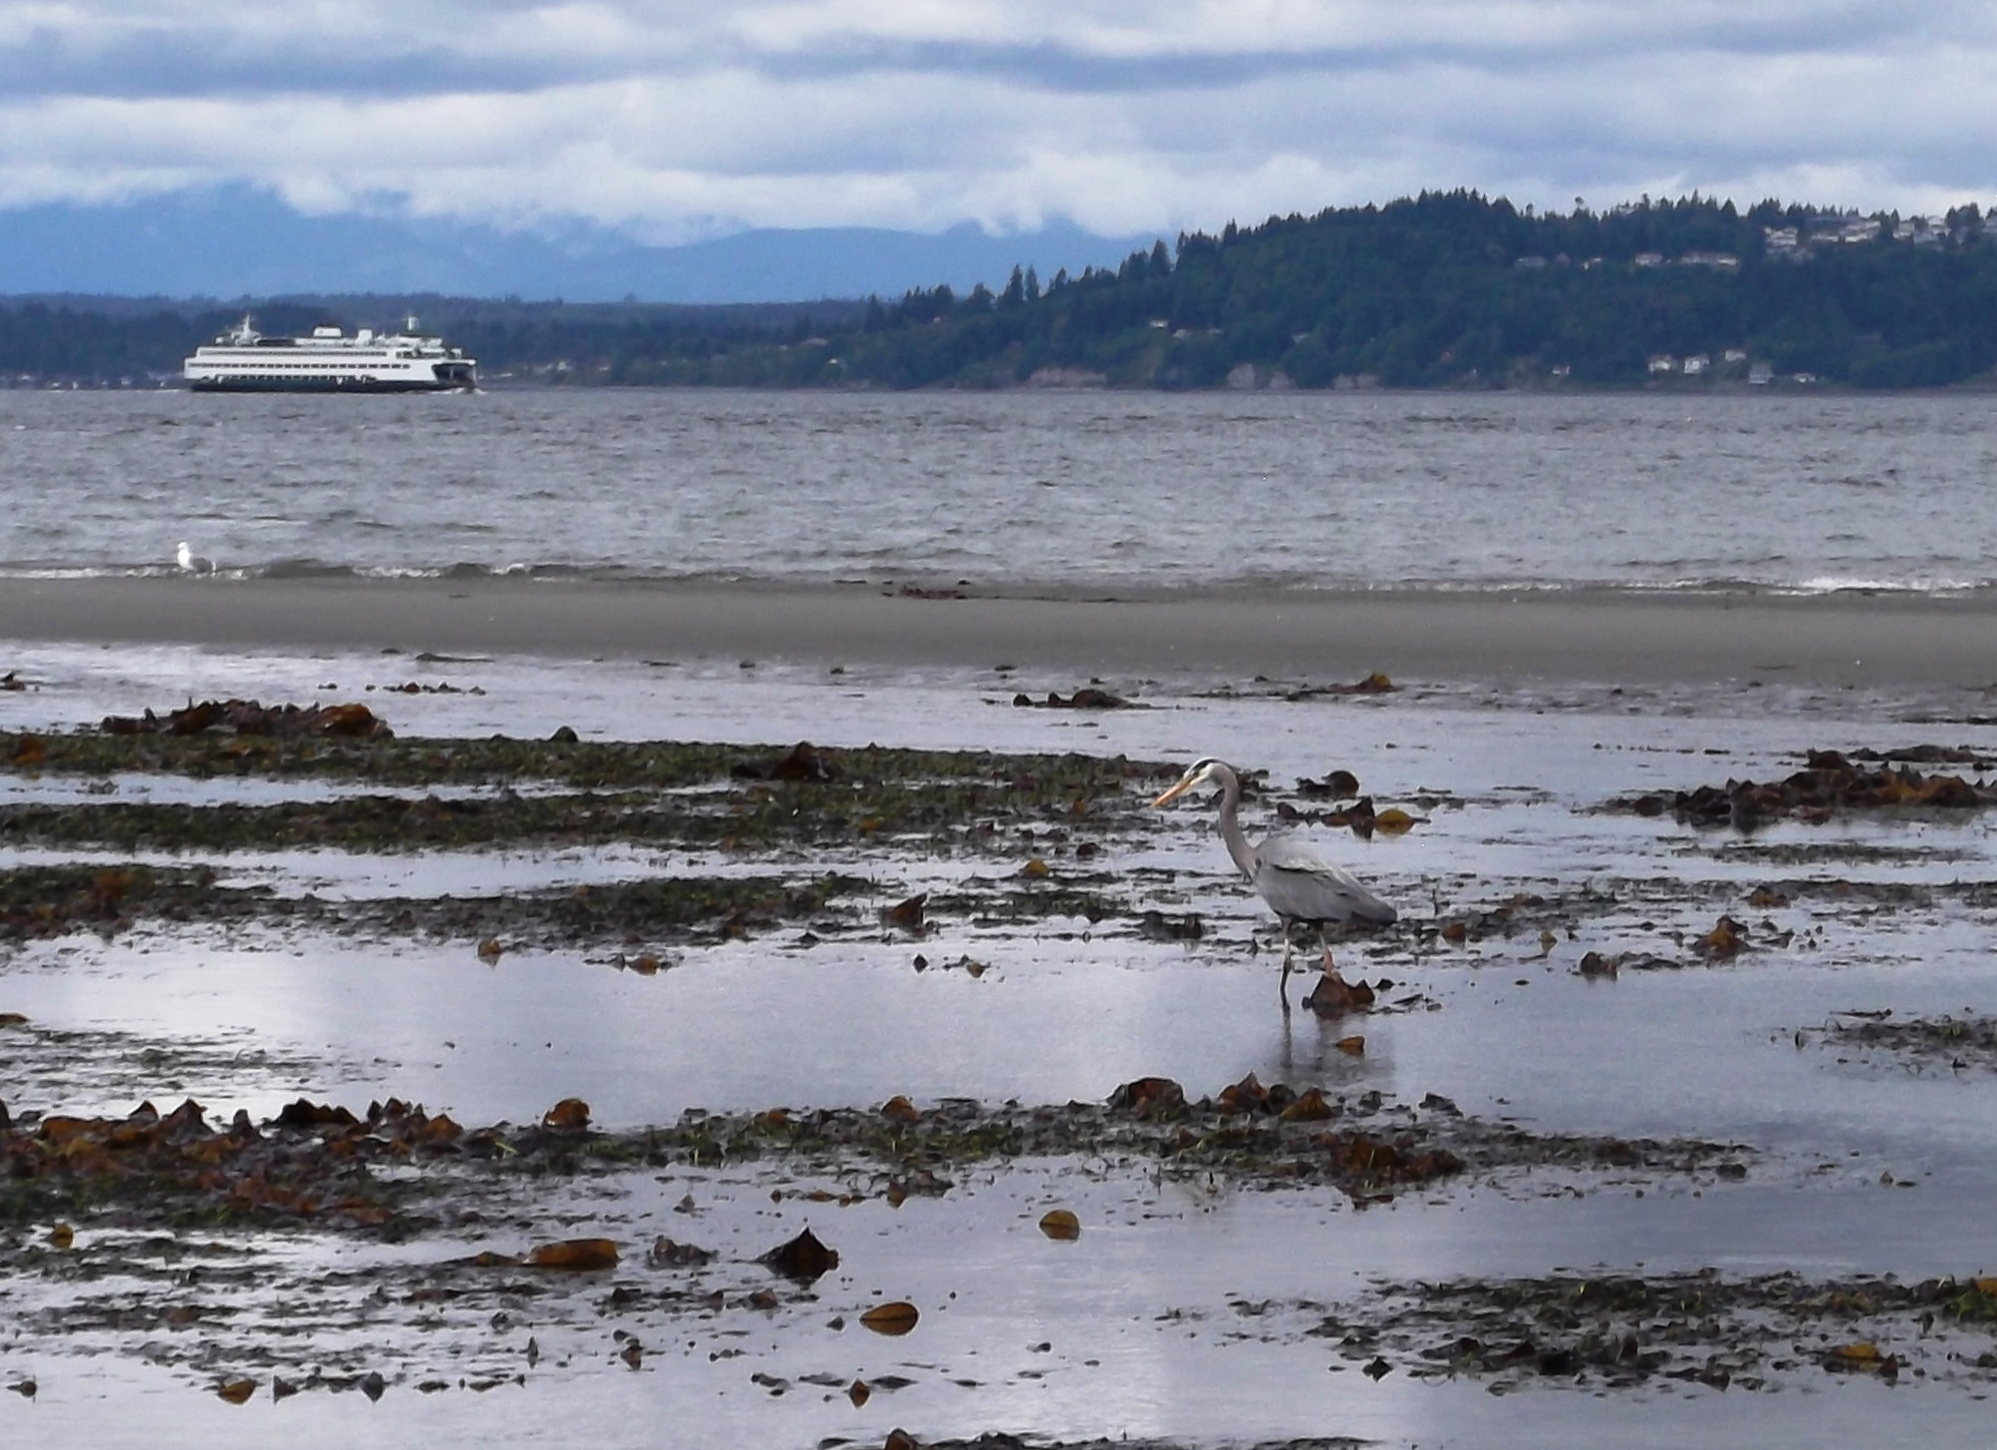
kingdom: Animalia
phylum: Chordata
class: Aves
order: Pelecaniformes
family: Ardeidae
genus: Ardea
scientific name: Ardea herodias
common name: Great blue heron
